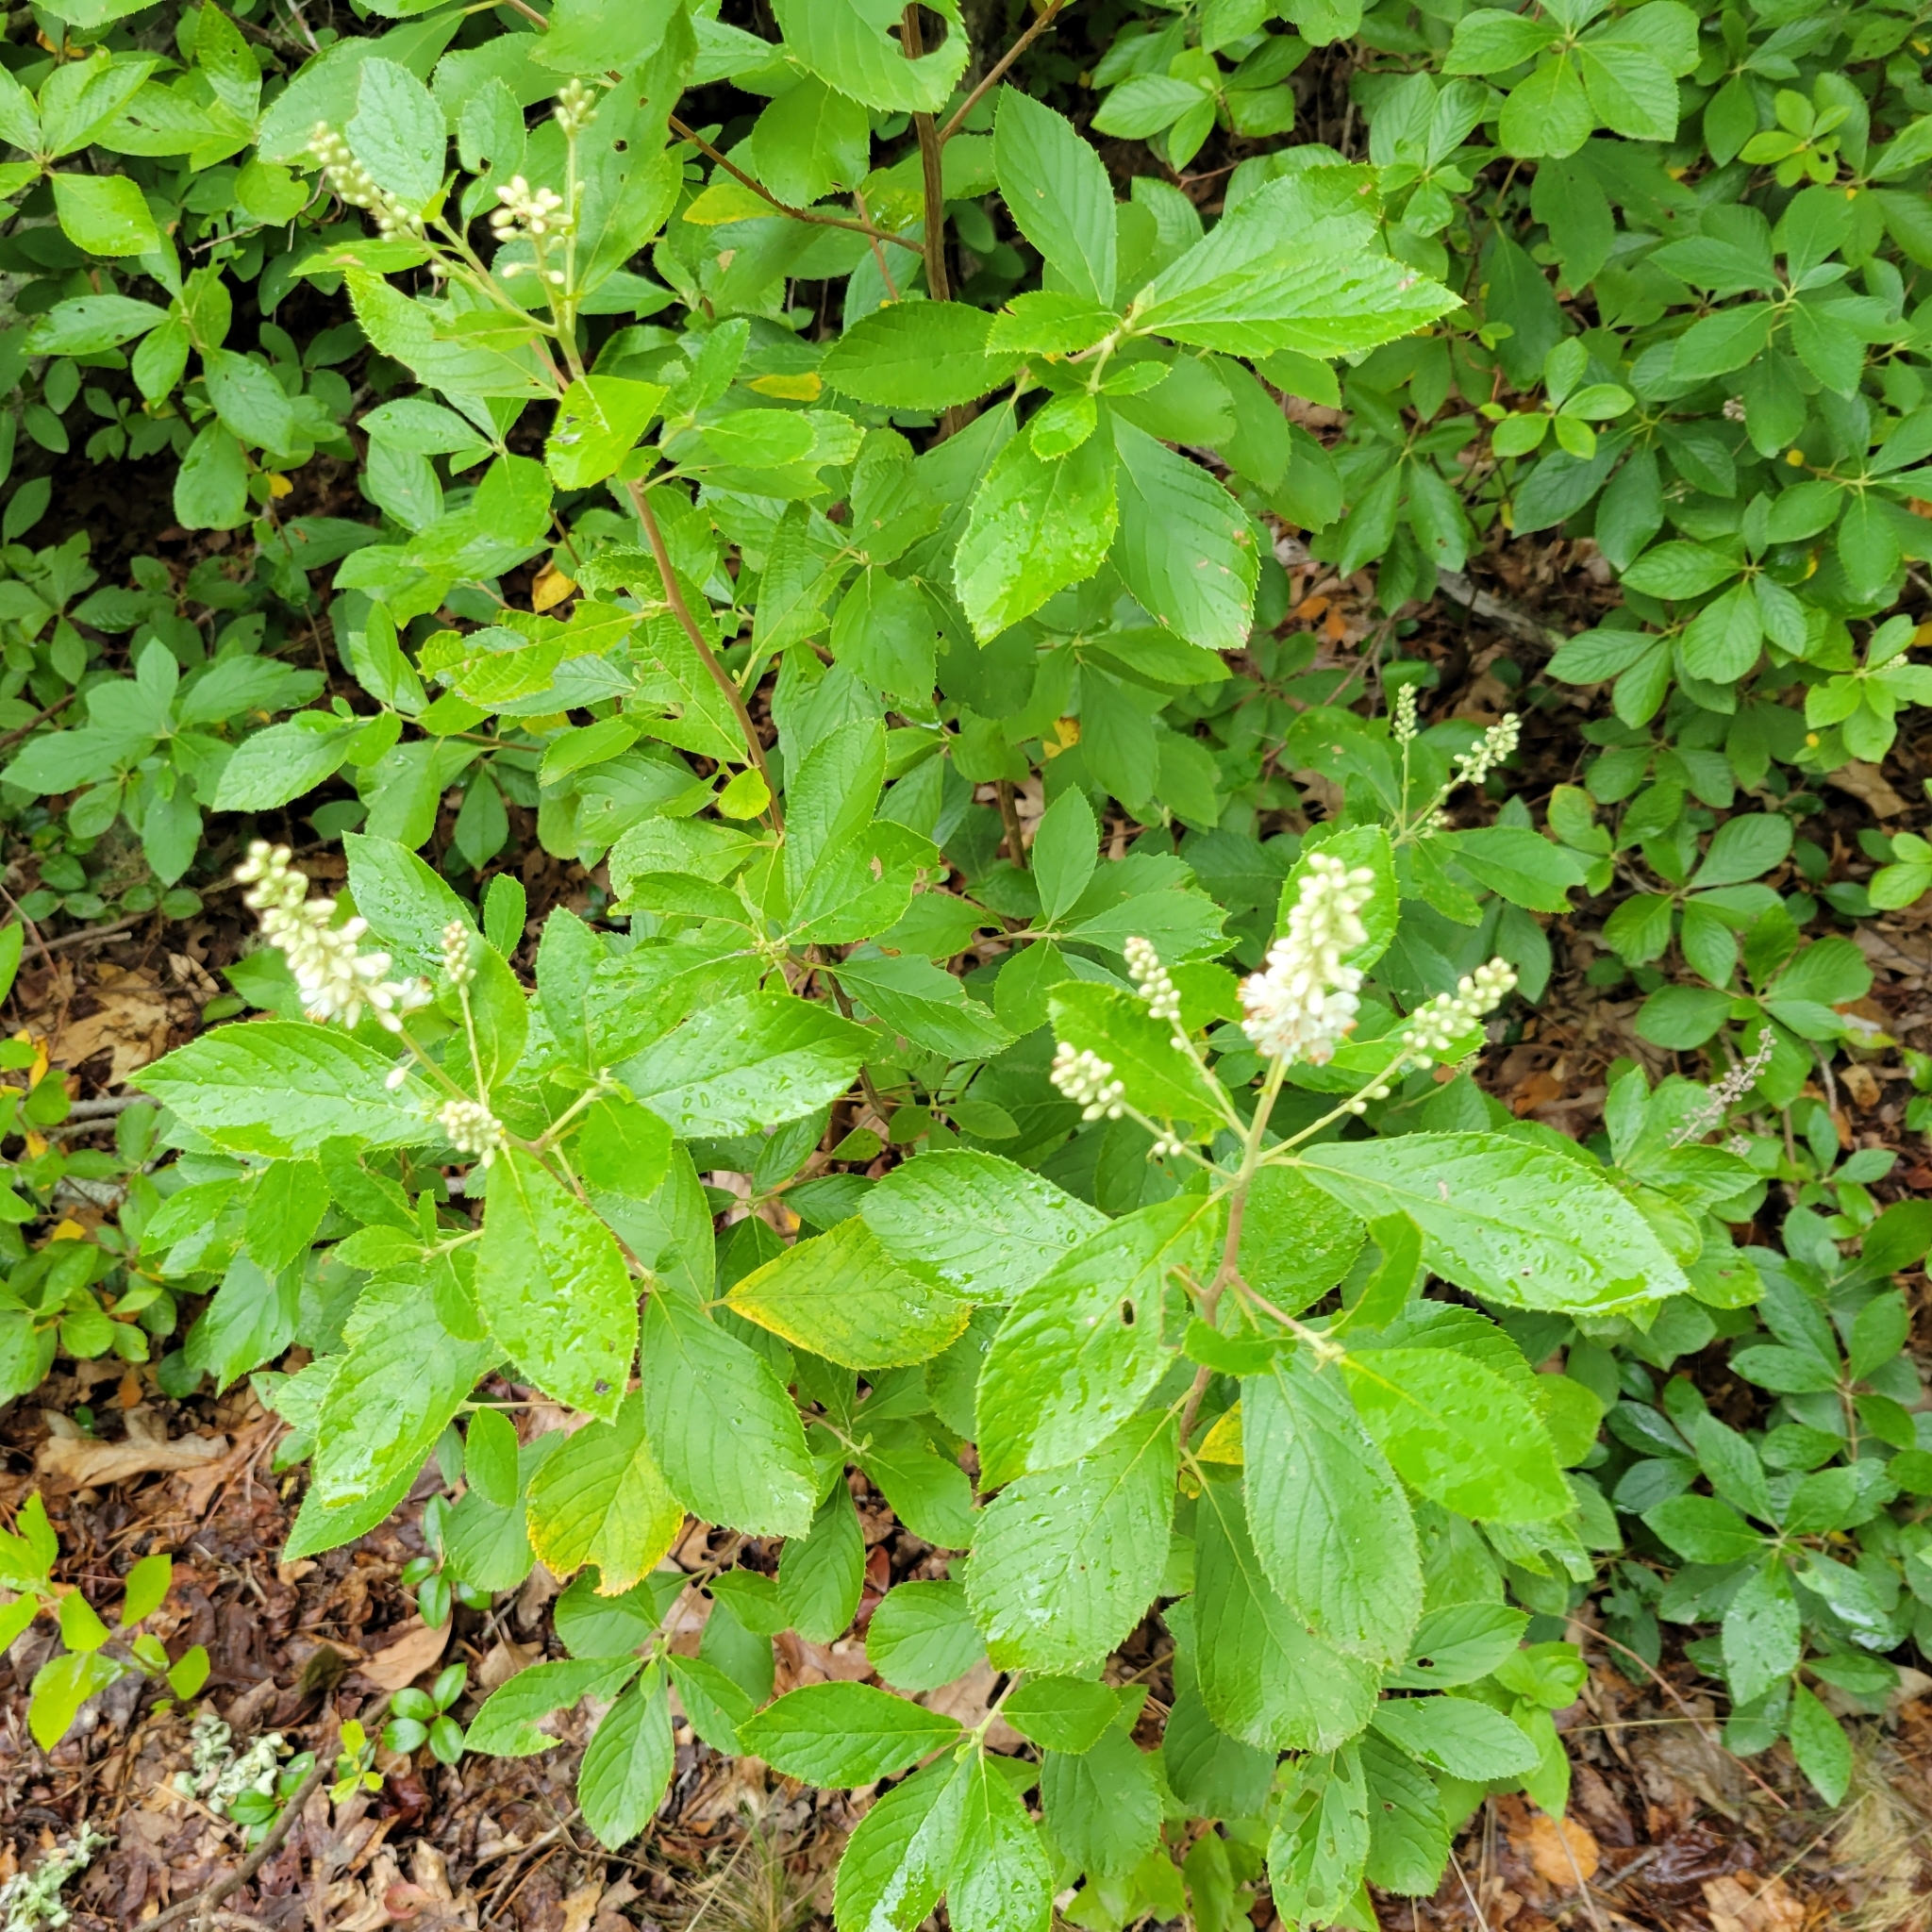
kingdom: Plantae
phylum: Tracheophyta
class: Magnoliopsida
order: Ericales
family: Clethraceae
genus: Clethra
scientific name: Clethra alnifolia
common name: Sweet pepperbush
